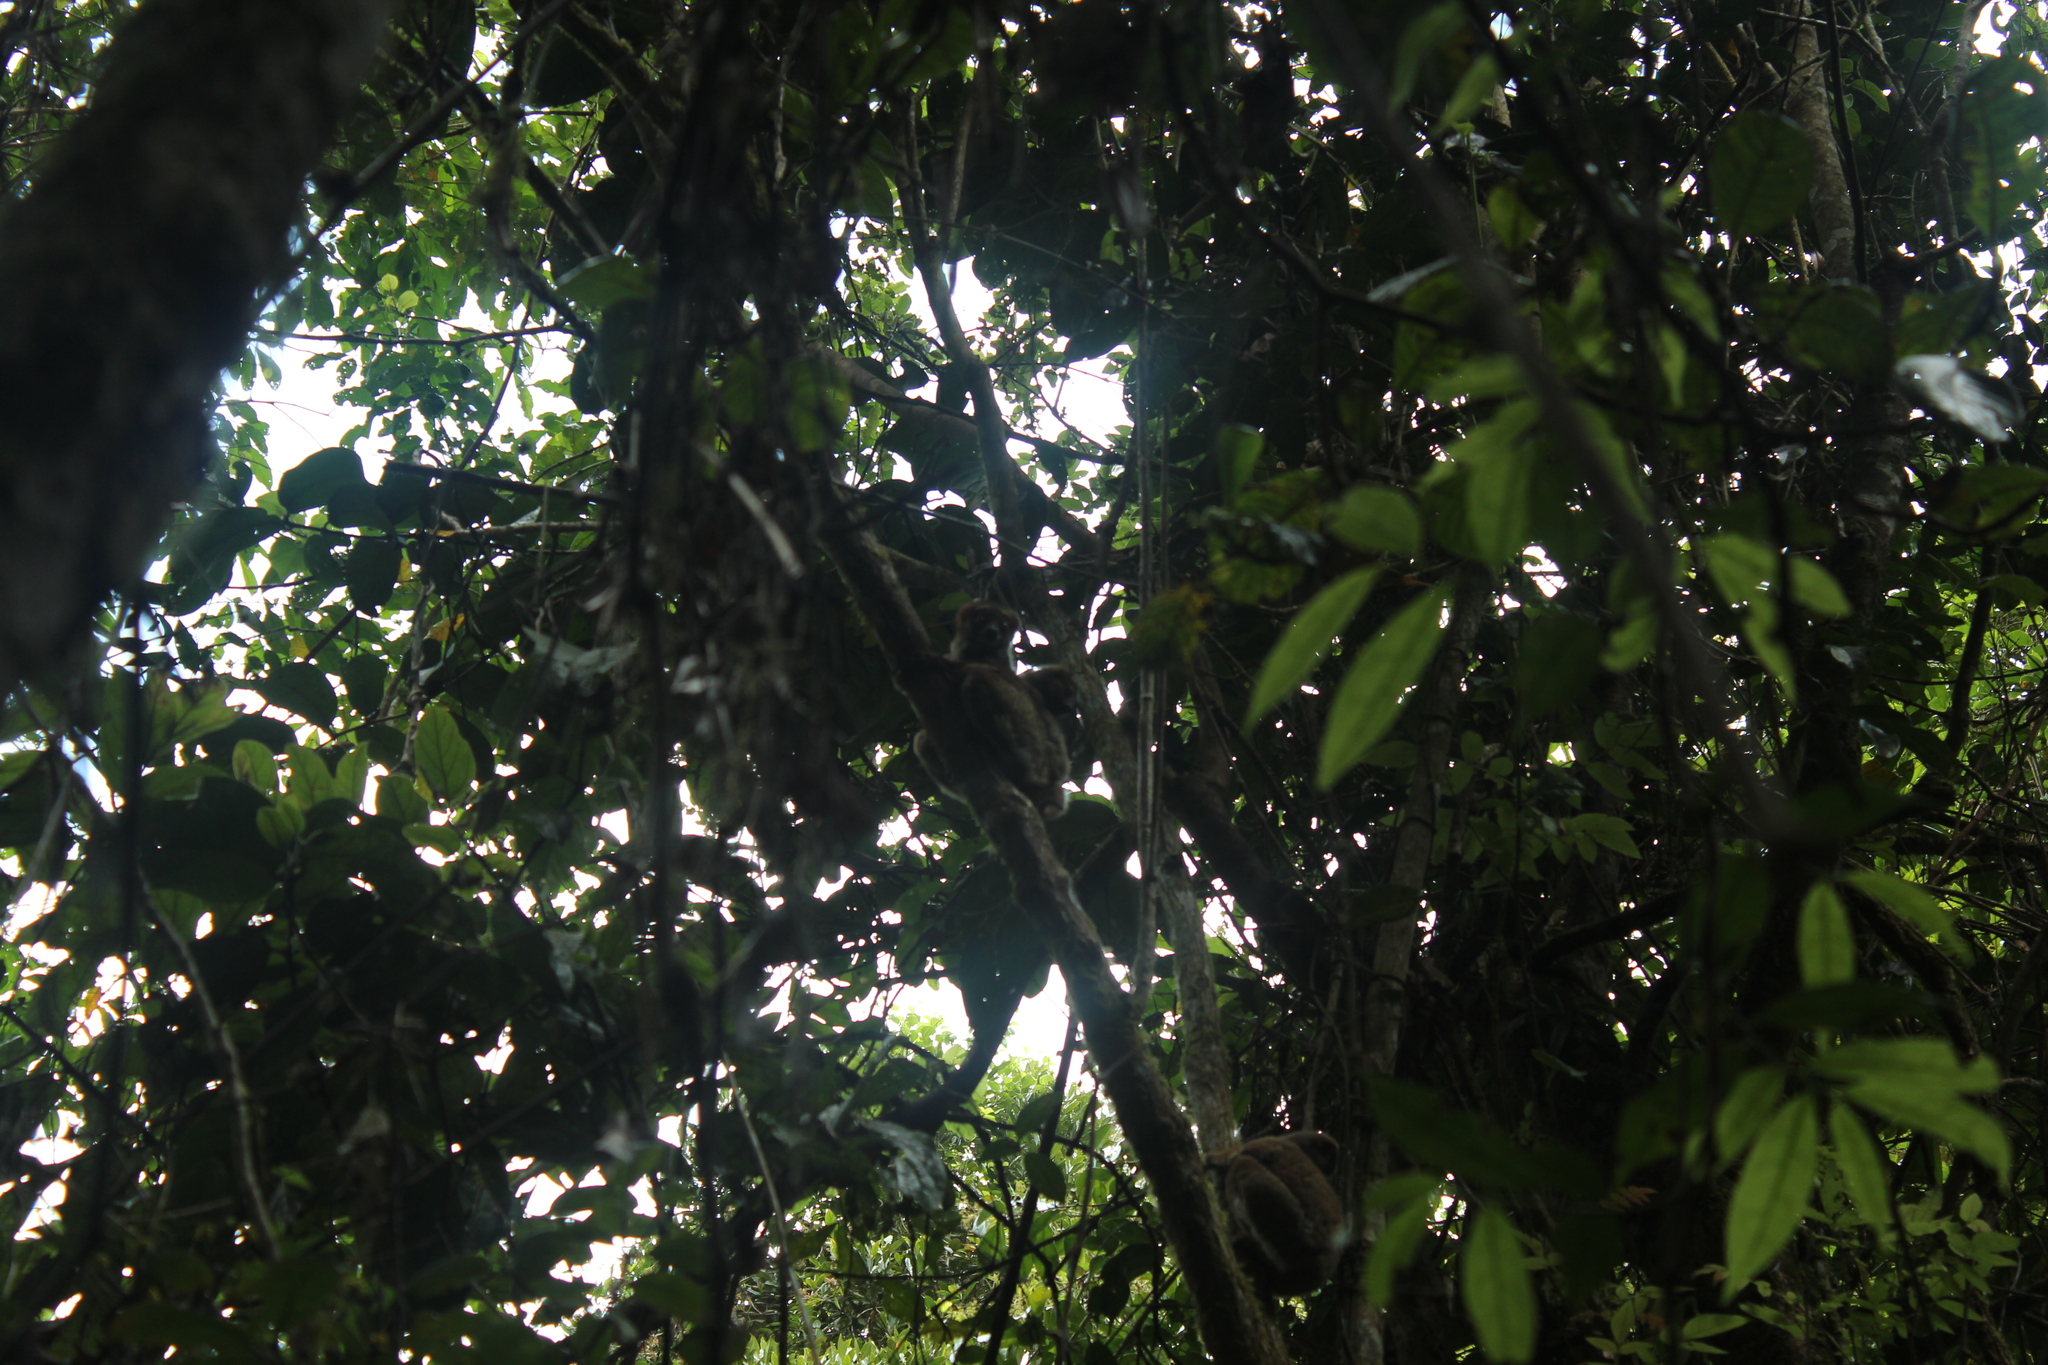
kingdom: Animalia
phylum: Chordata
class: Mammalia
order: Primates
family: Indriidae
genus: Avahi
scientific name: Avahi peyrierasi
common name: Peyrieras's woolly lemur
